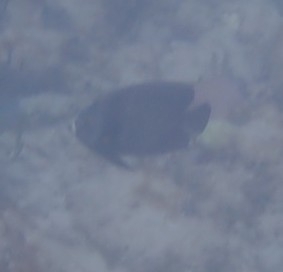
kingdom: Animalia
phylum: Chordata
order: Perciformes
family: Pomacanthidae
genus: Pomacanthus
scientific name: Pomacanthus arcuatus
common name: Gray angelfish
